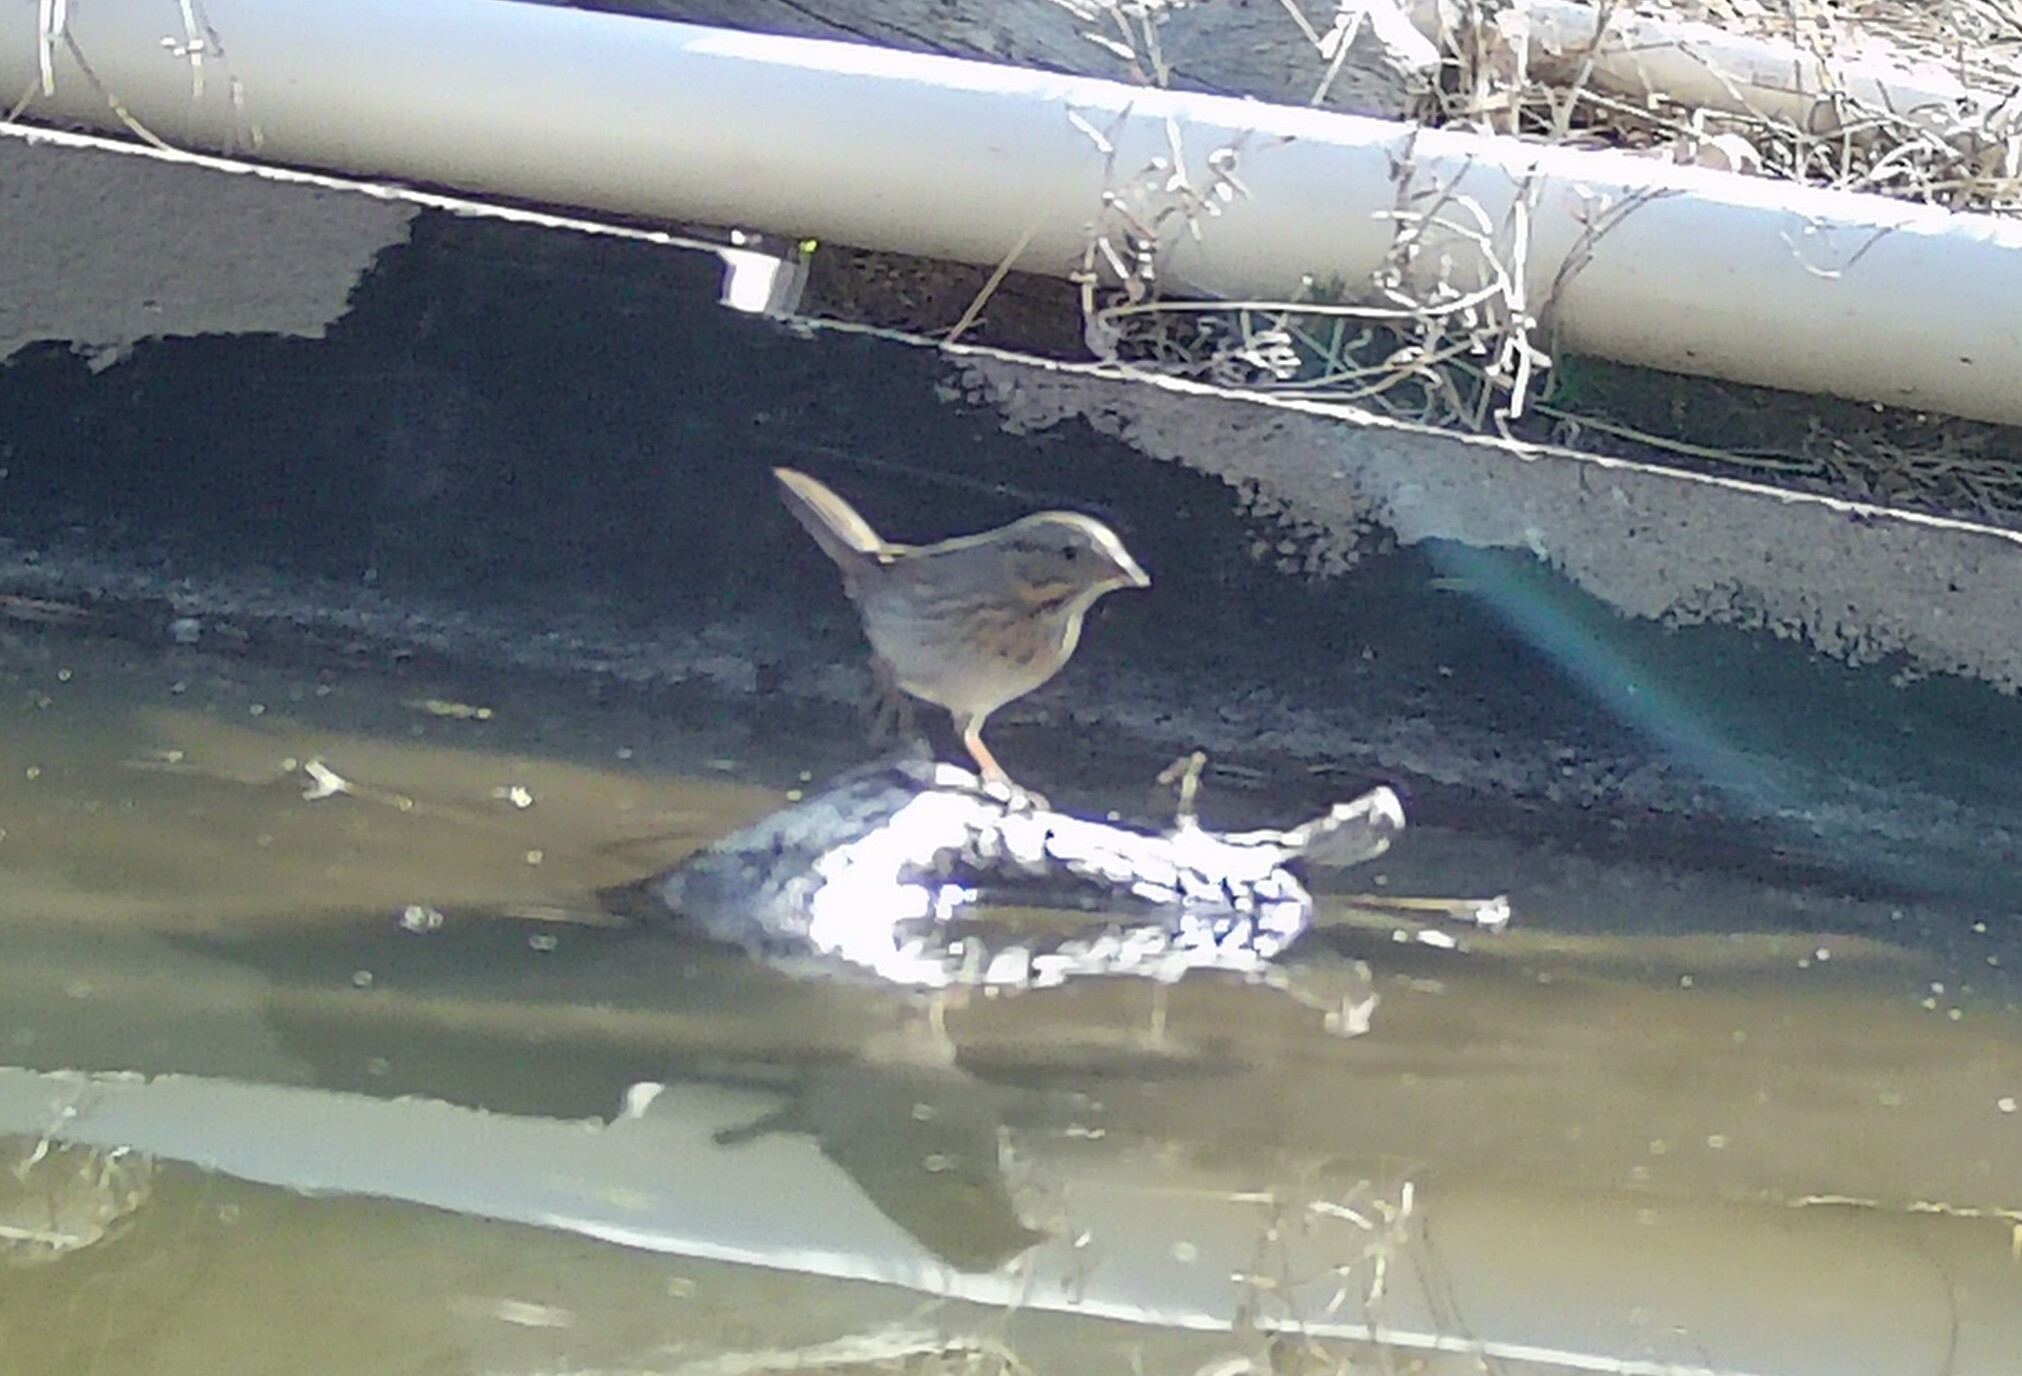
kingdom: Animalia
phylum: Chordata
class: Aves
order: Passeriformes
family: Passerellidae
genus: Melospiza
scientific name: Melospiza lincolnii
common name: Lincoln's sparrow
